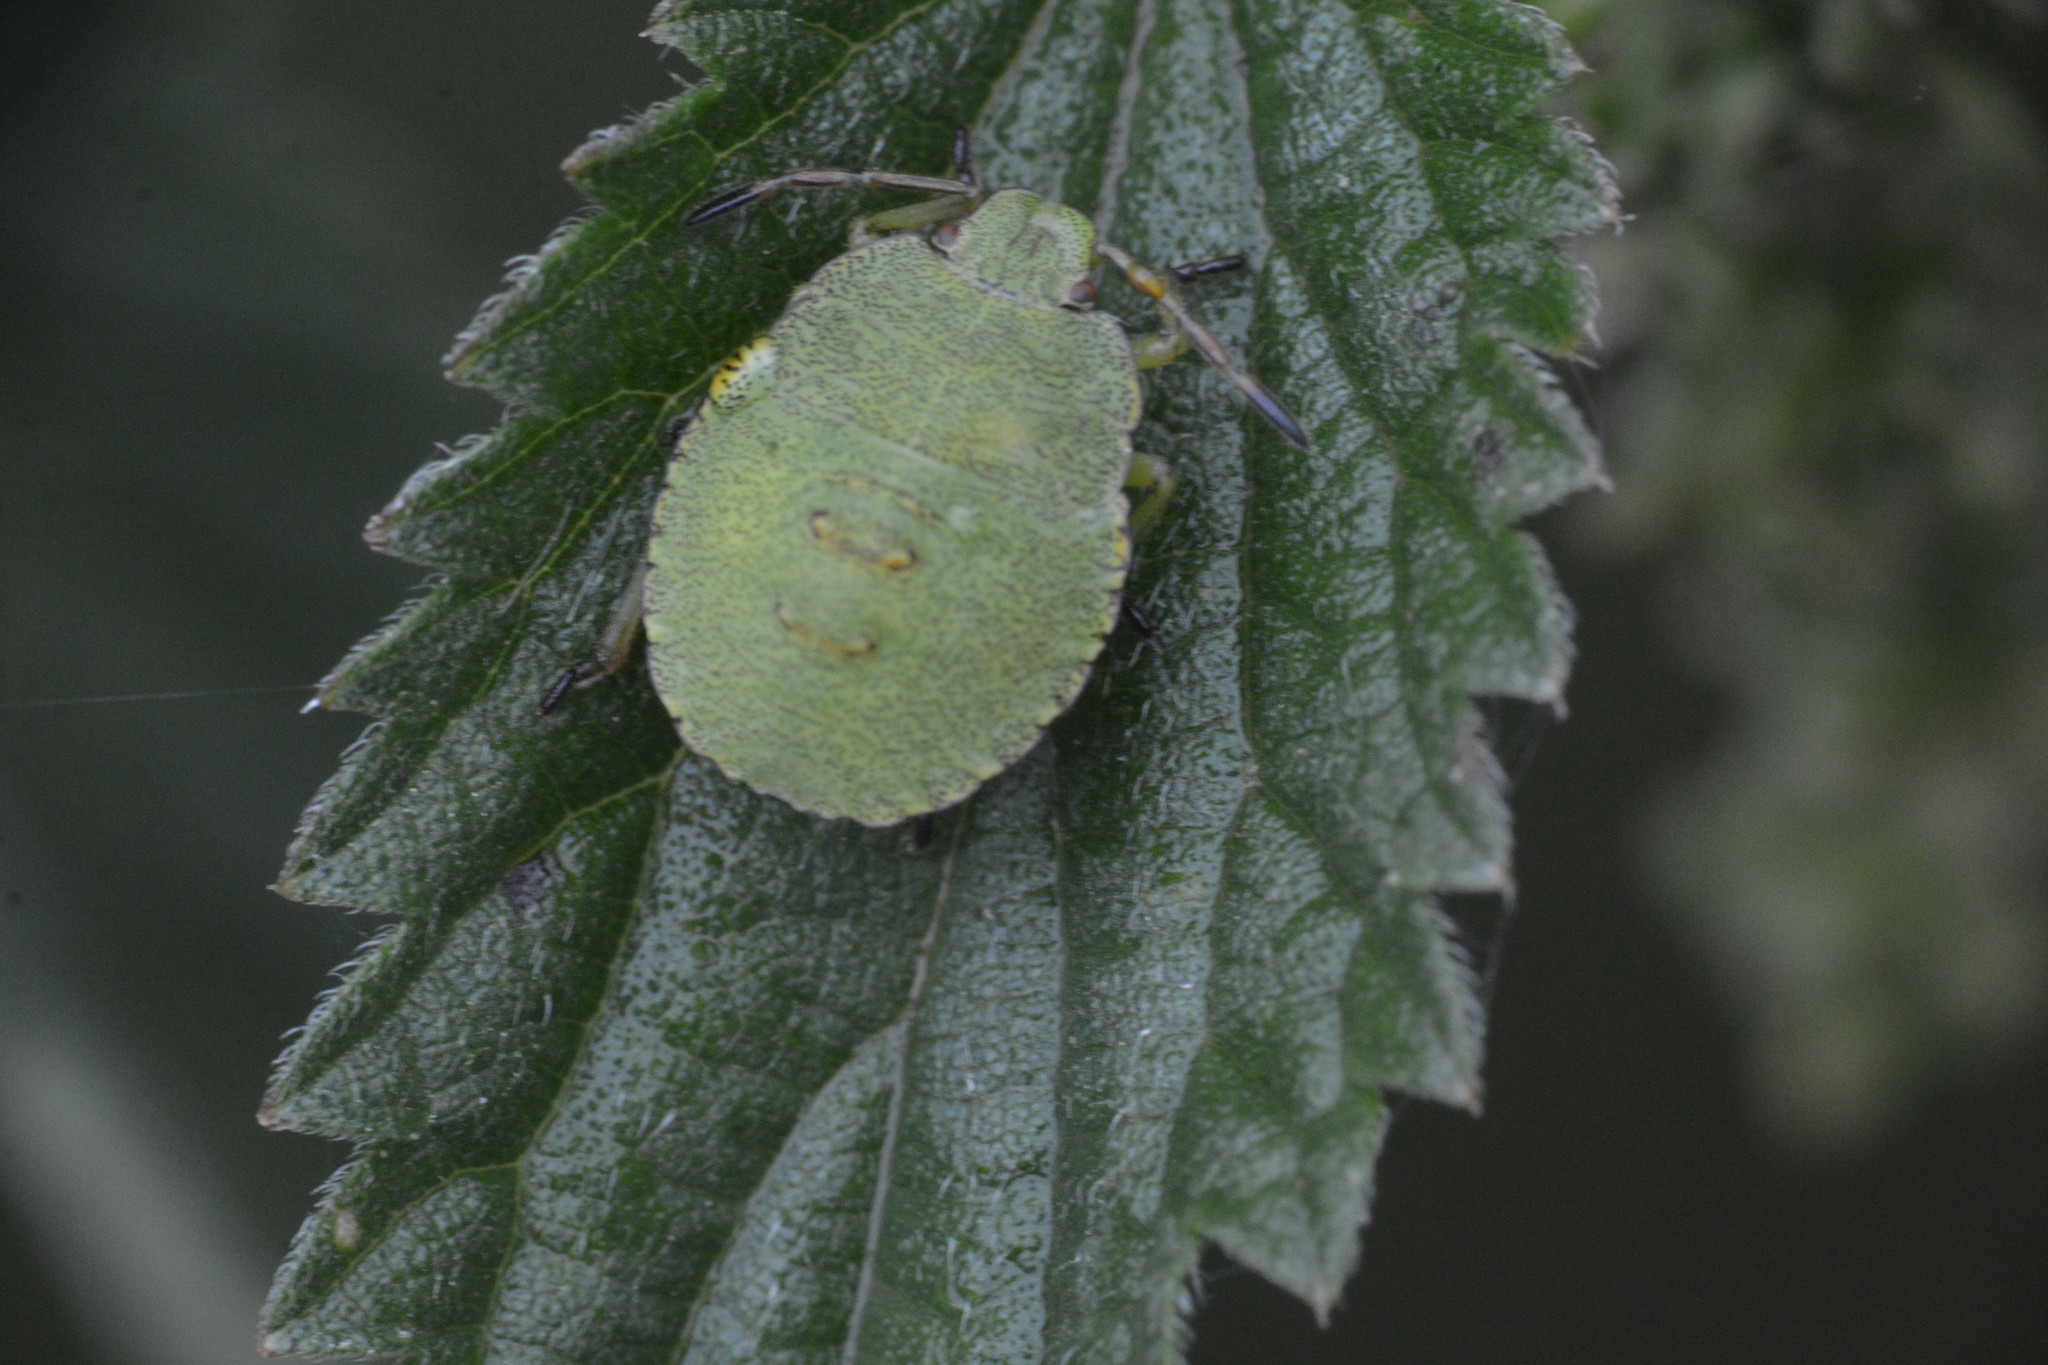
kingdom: Animalia
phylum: Arthropoda
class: Insecta
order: Hemiptera
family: Pentatomidae
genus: Palomena
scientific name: Palomena prasina
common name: Green shieldbug
